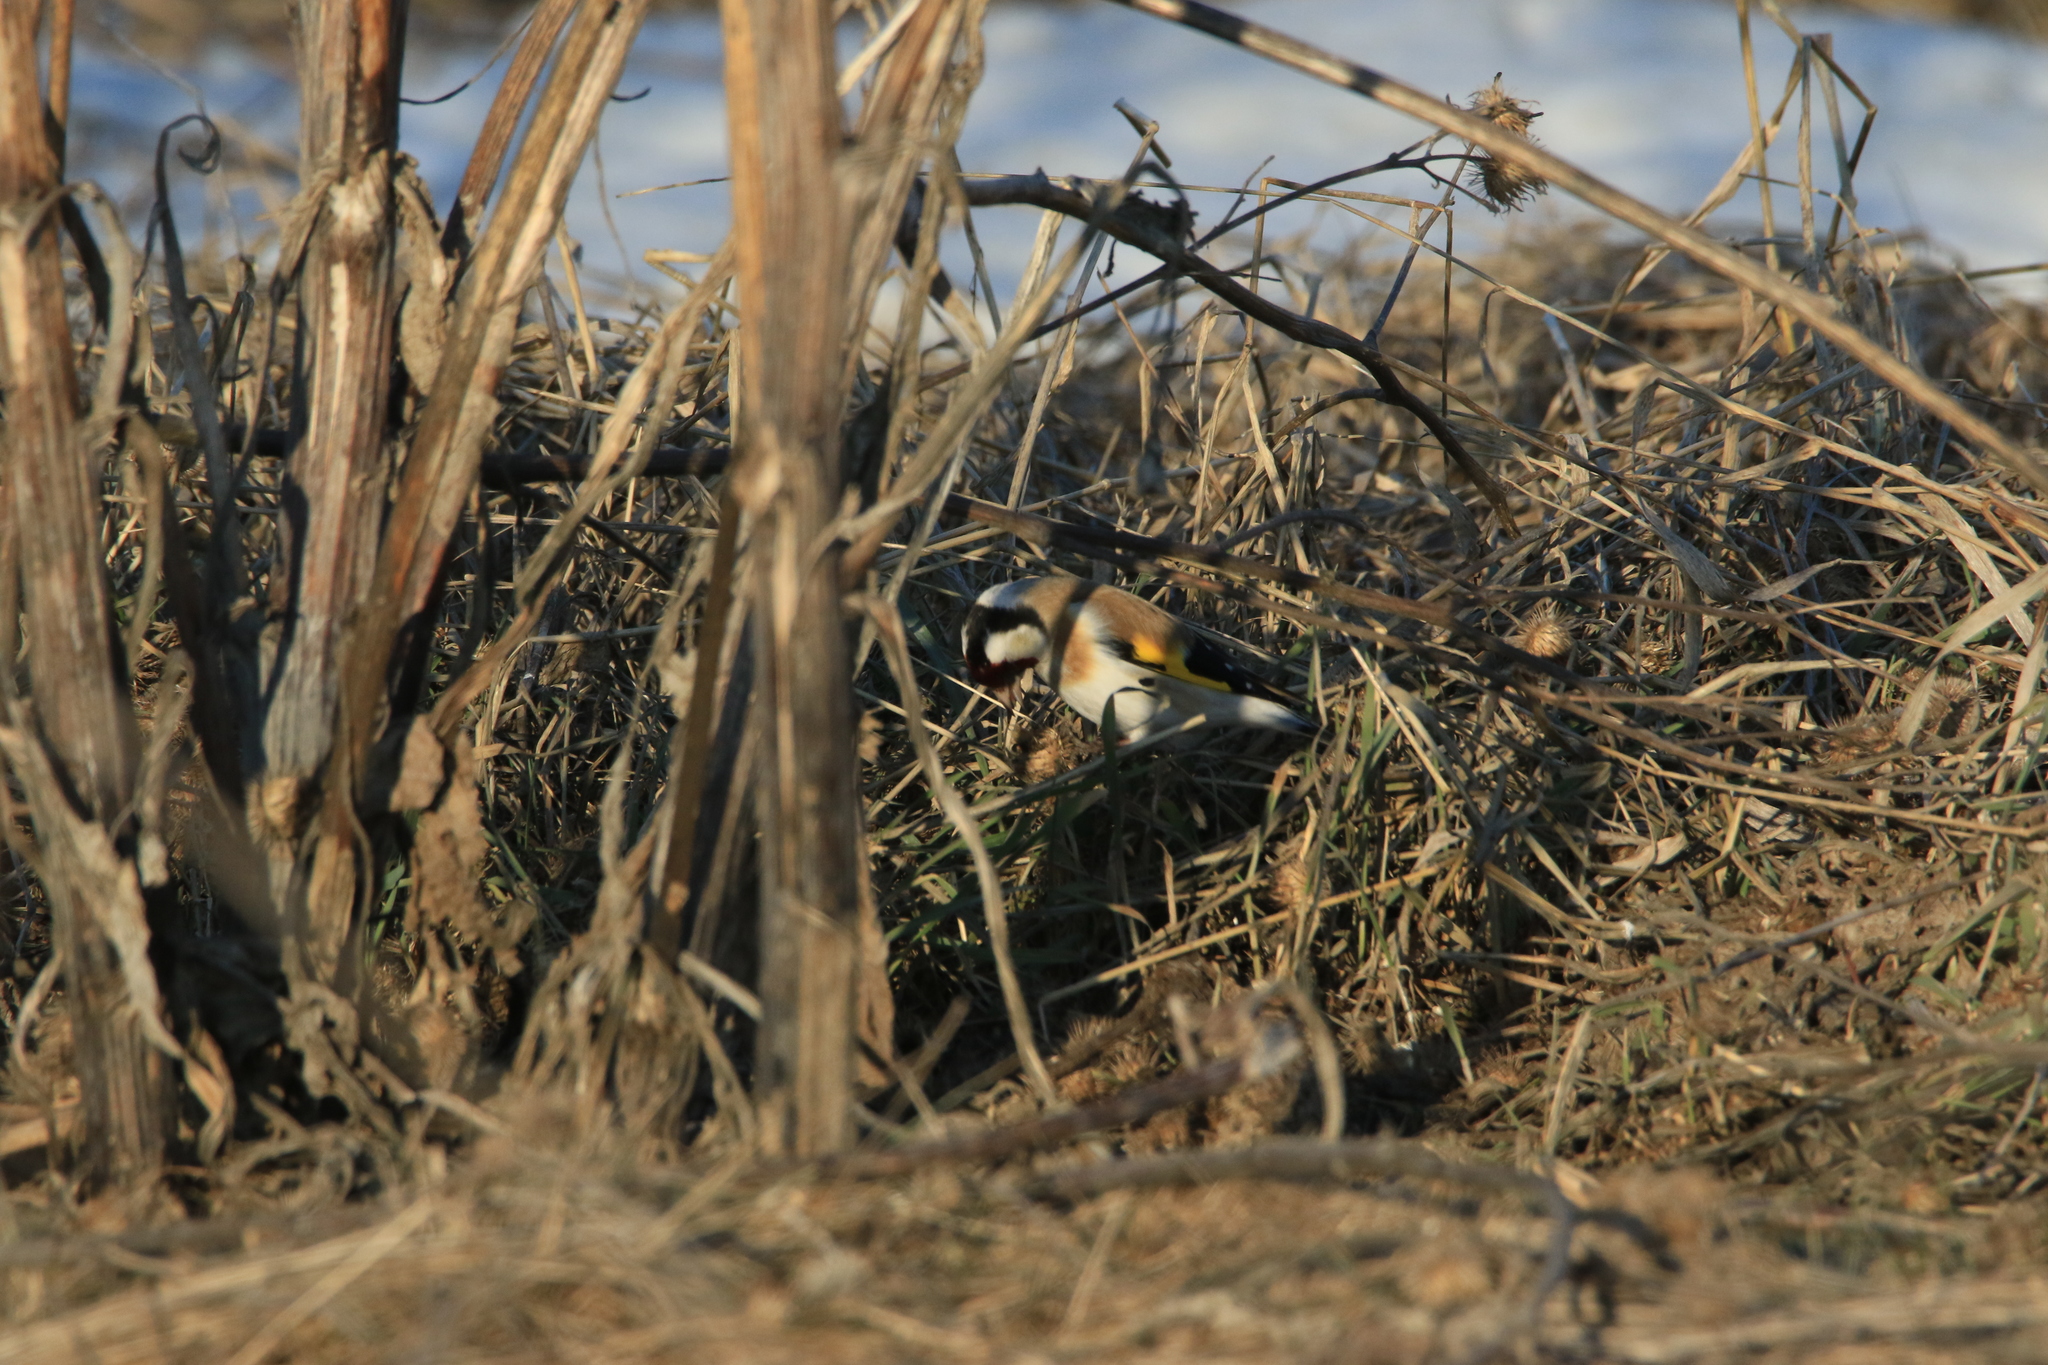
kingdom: Animalia
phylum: Chordata
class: Aves
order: Passeriformes
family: Fringillidae
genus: Carduelis
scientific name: Carduelis carduelis
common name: European goldfinch
